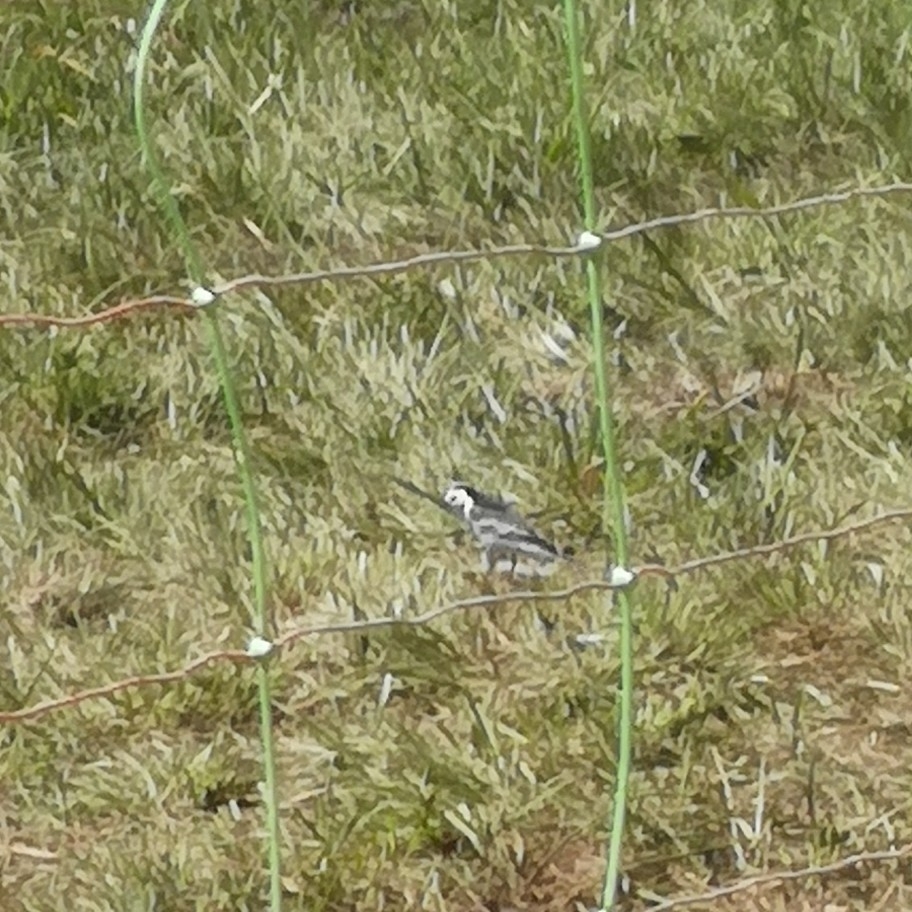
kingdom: Animalia
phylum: Chordata
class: Aves
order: Passeriformes
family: Motacillidae
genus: Motacilla
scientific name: Motacilla alba
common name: White wagtail
